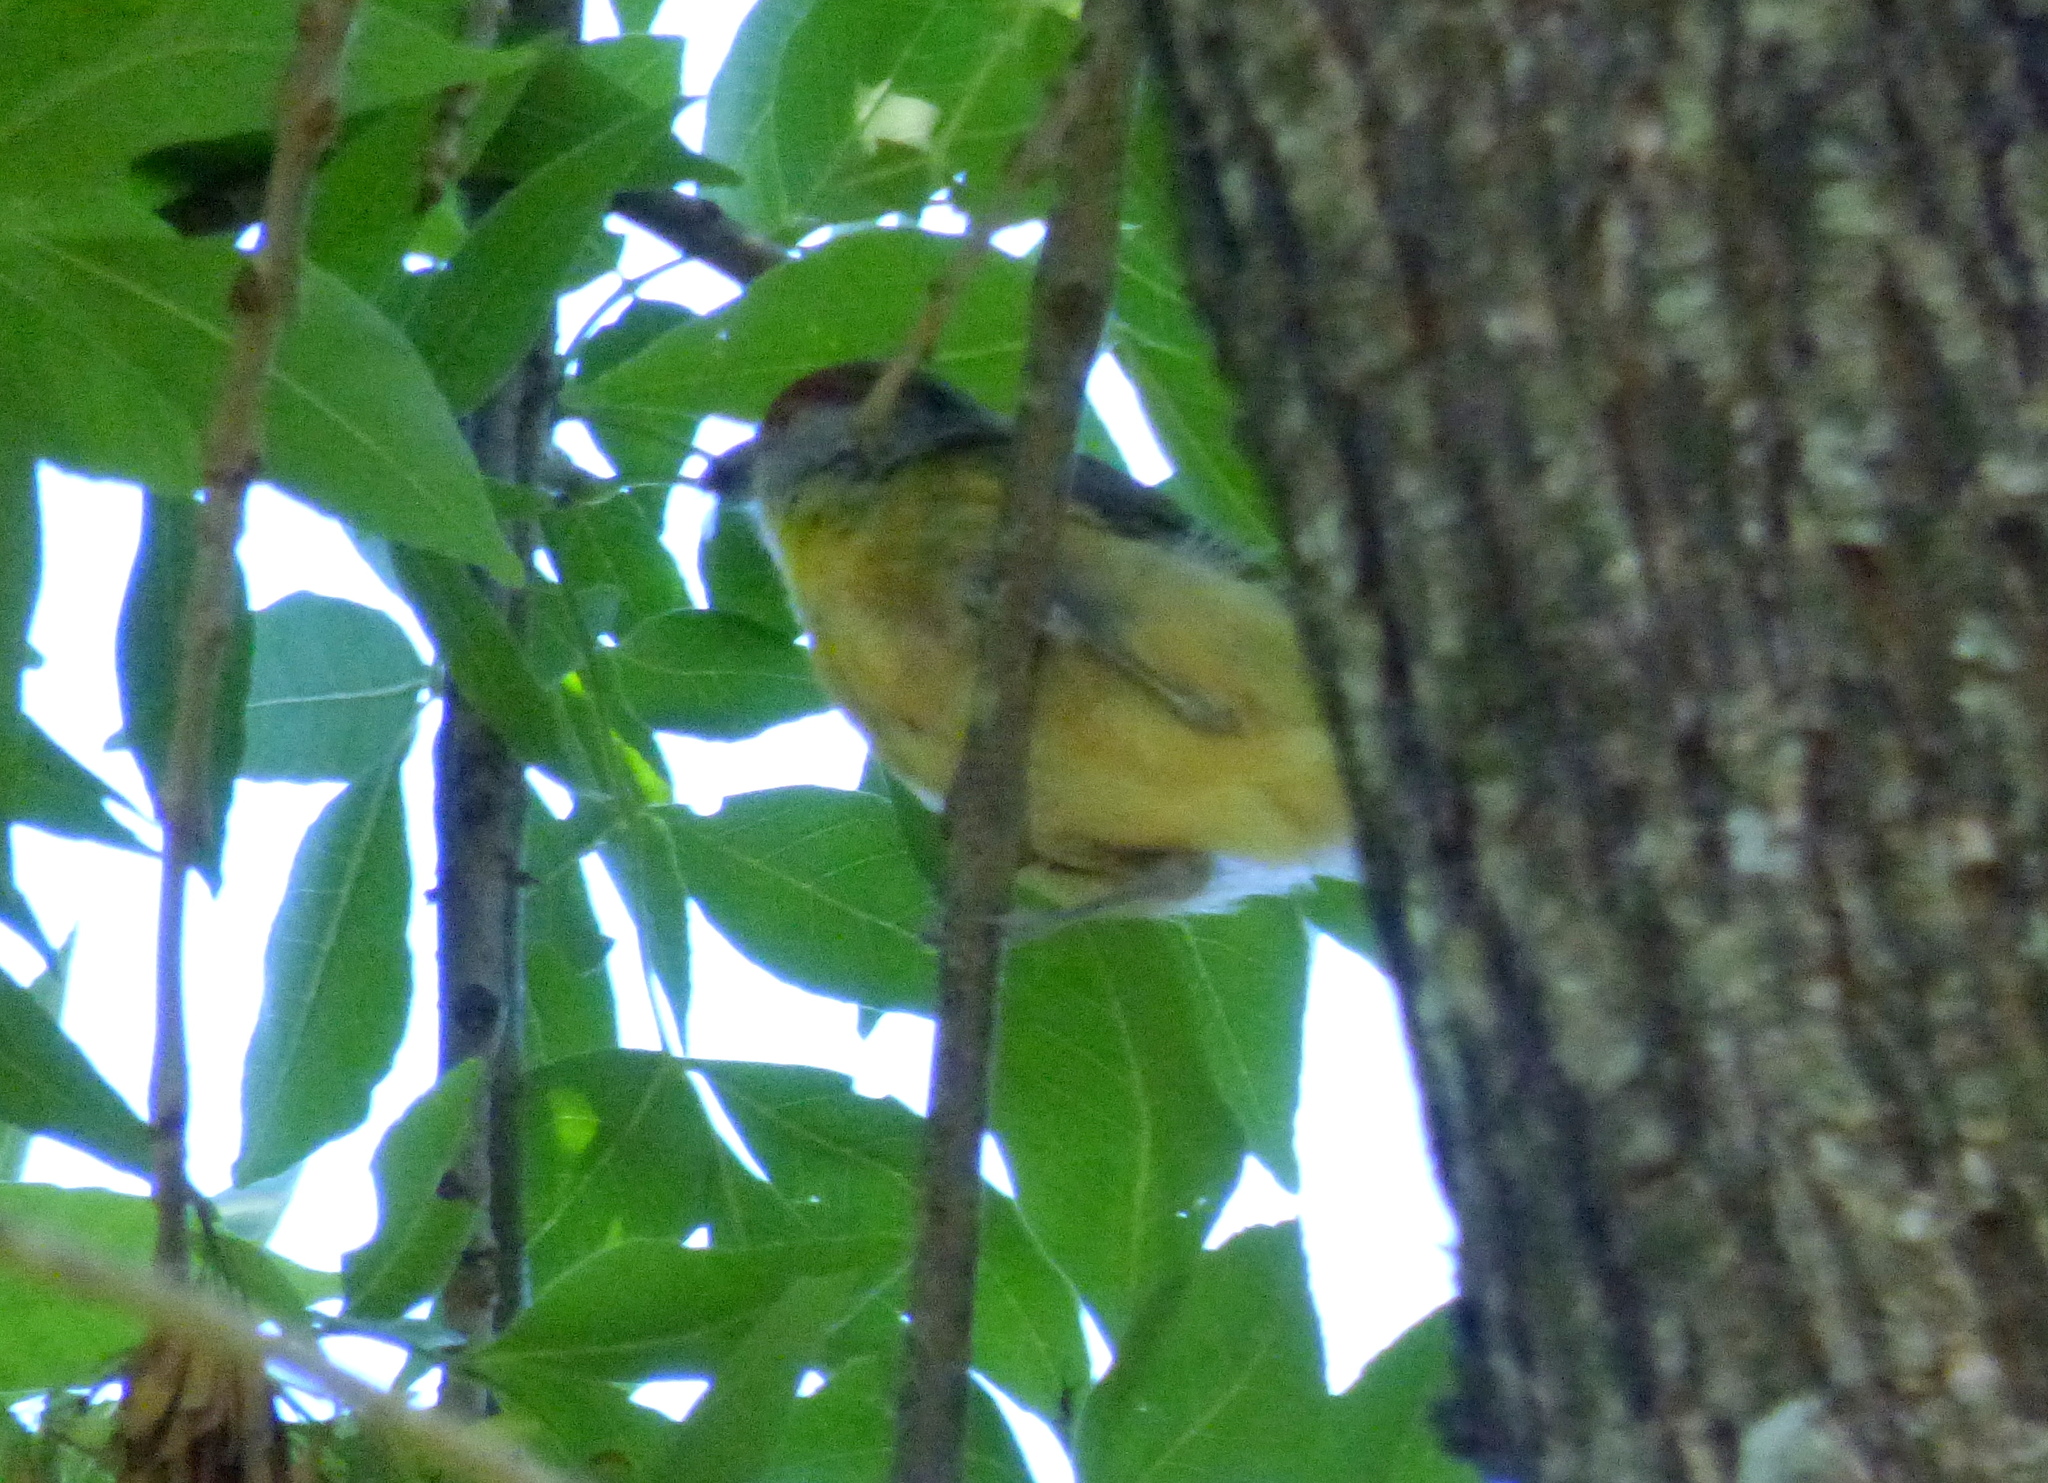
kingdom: Animalia
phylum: Chordata
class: Aves
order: Passeriformes
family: Vireonidae
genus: Cyclarhis
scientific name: Cyclarhis gujanensis
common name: Rufous-browed peppershrike
